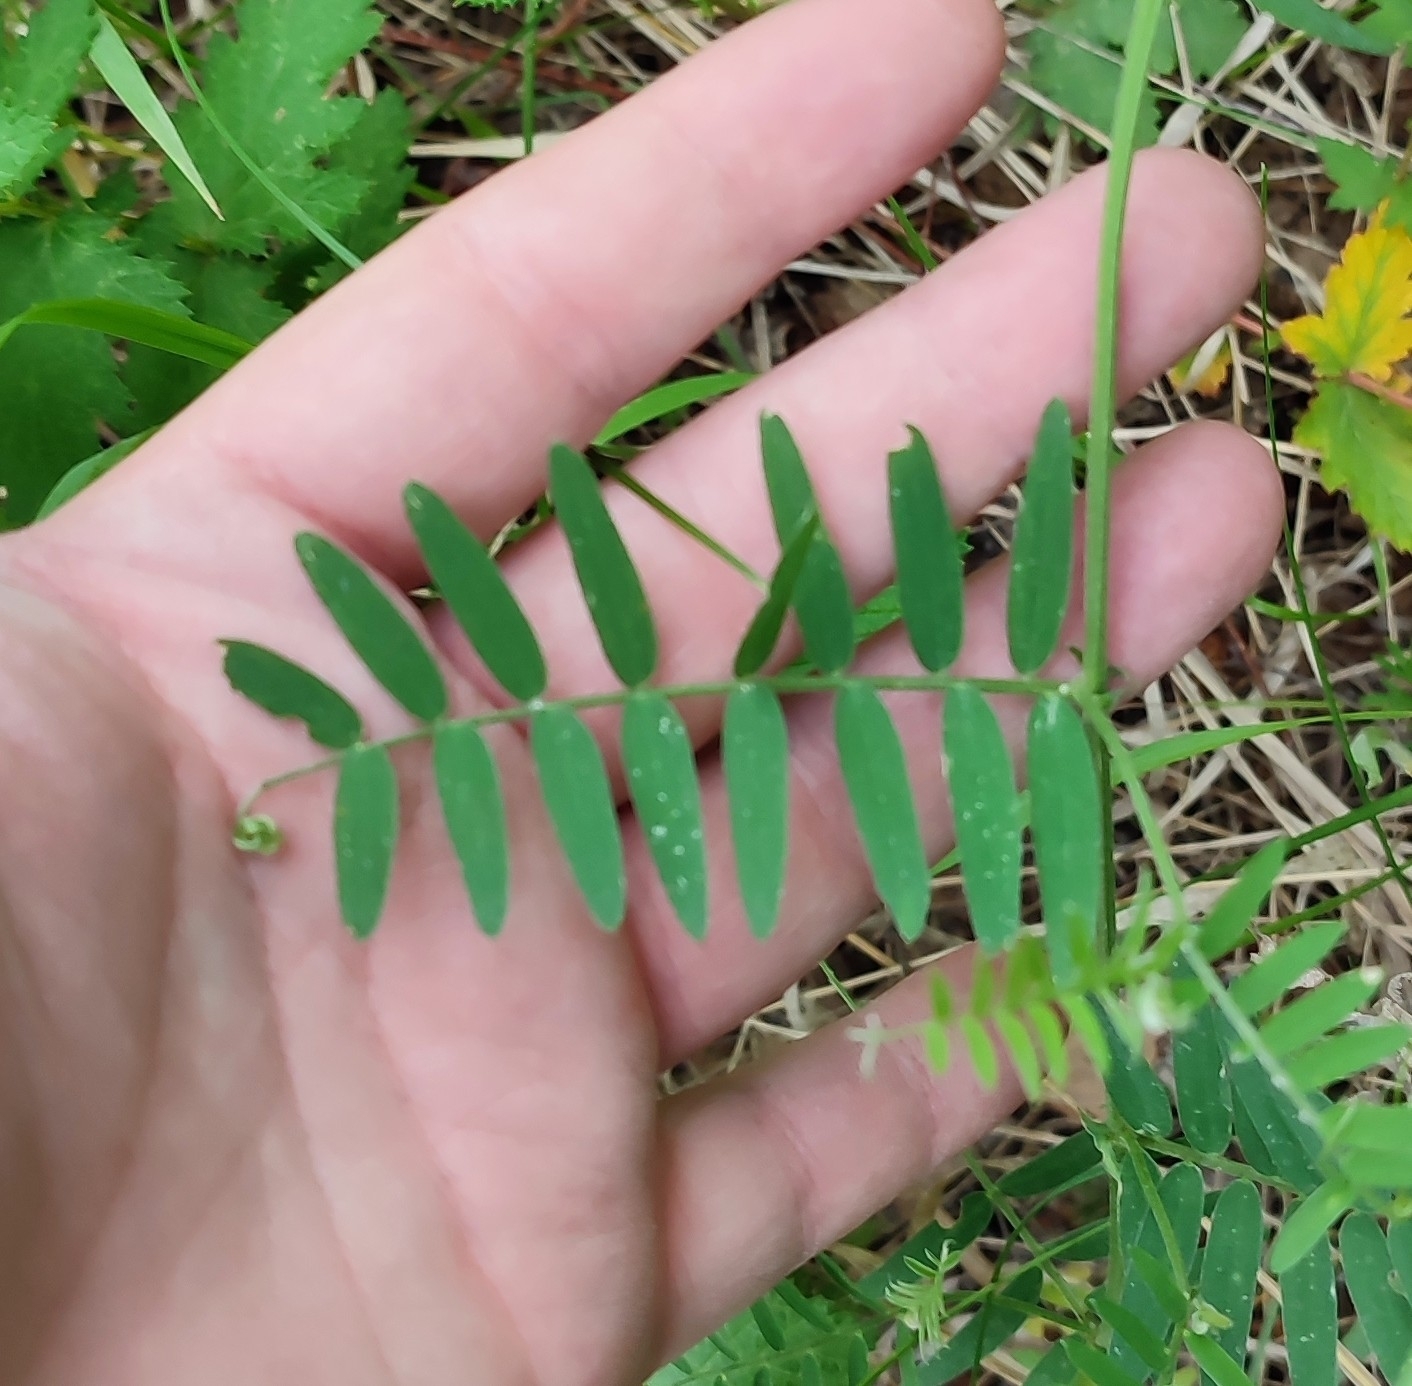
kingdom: Plantae
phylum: Tracheophyta
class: Magnoliopsida
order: Fabales
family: Fabaceae
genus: Vicia
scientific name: Vicia cracca
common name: Bird vetch
